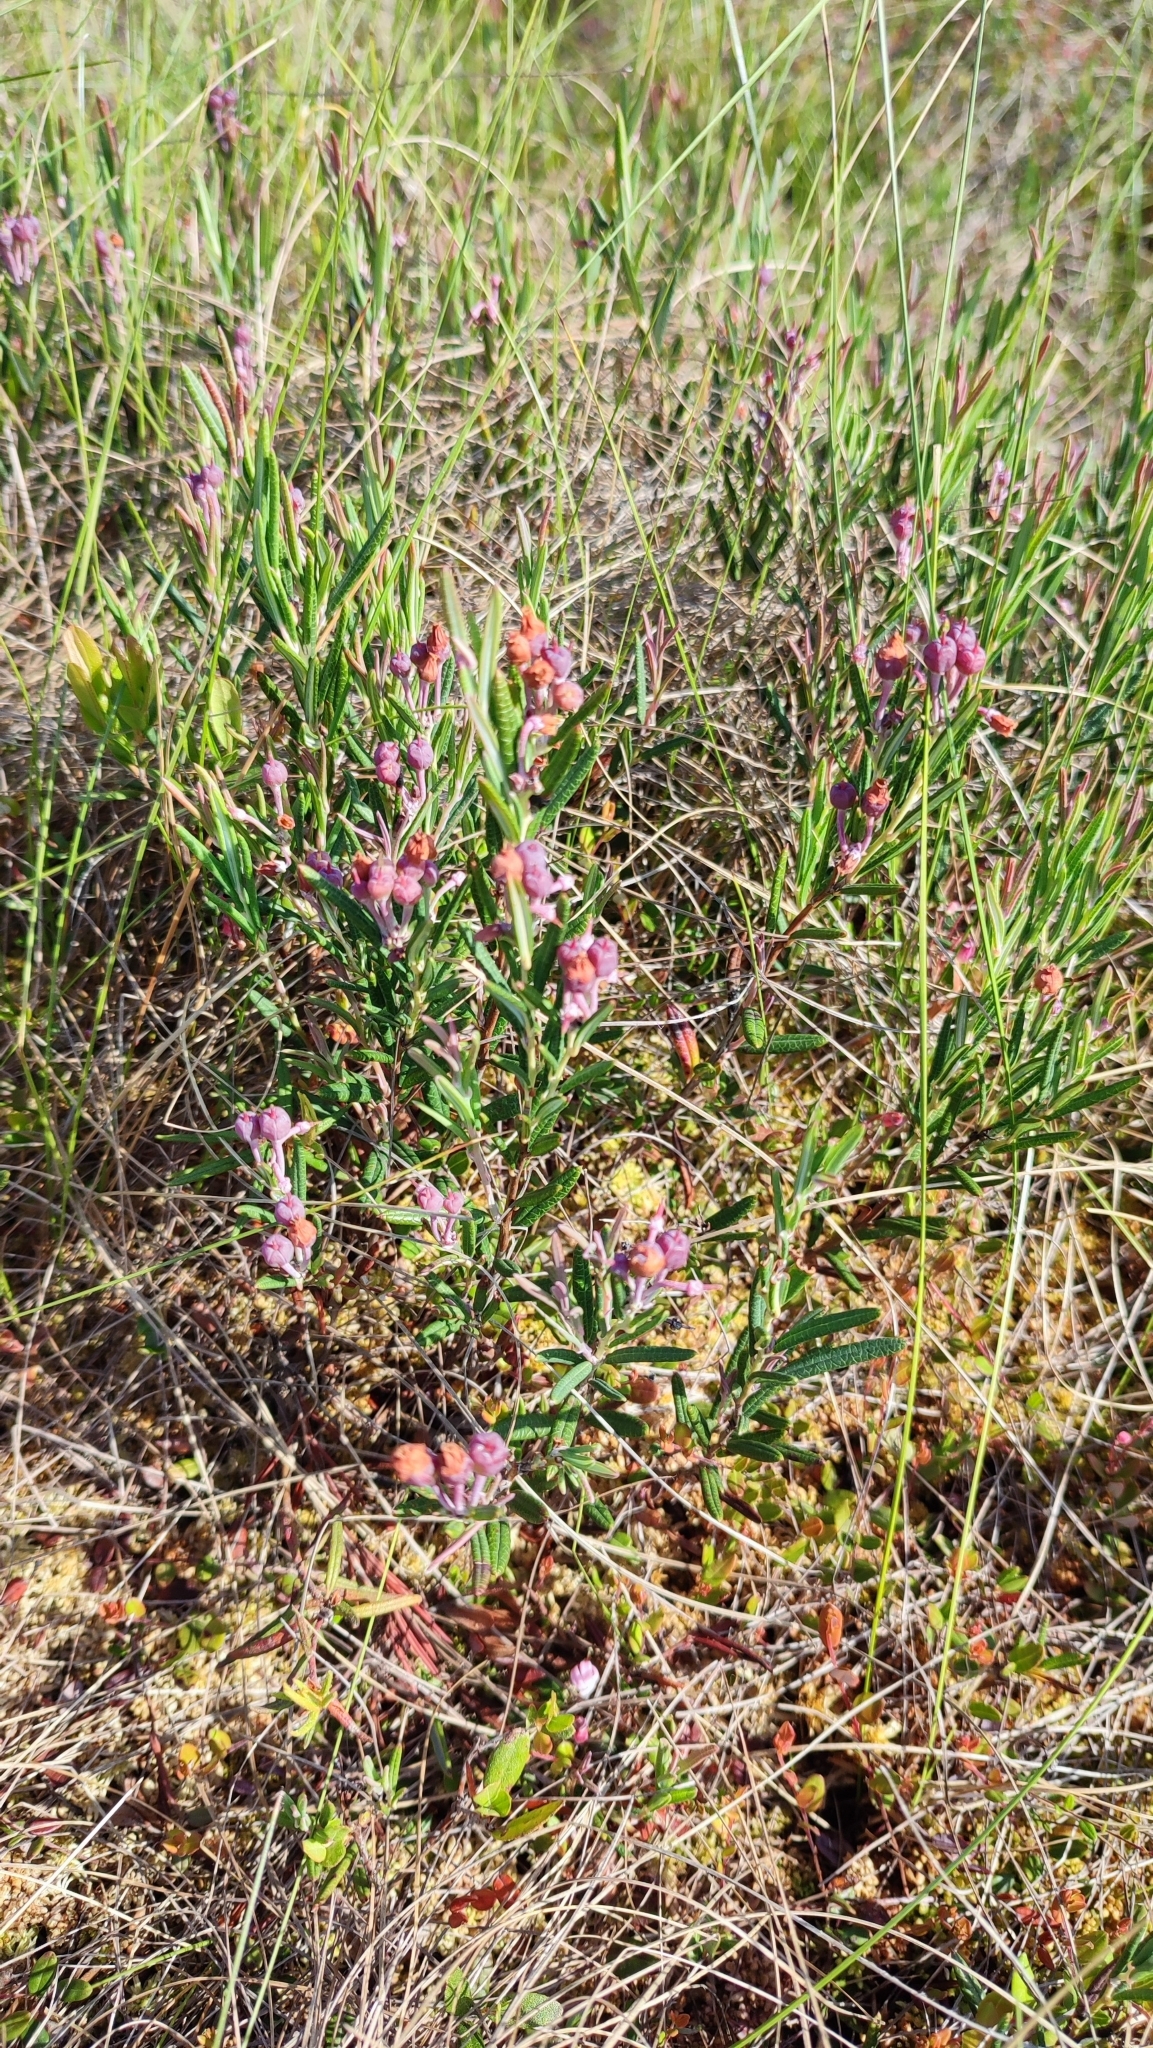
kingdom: Plantae
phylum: Tracheophyta
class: Magnoliopsida
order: Ericales
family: Ericaceae
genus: Andromeda
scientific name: Andromeda polifolia
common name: Bog-rosemary
